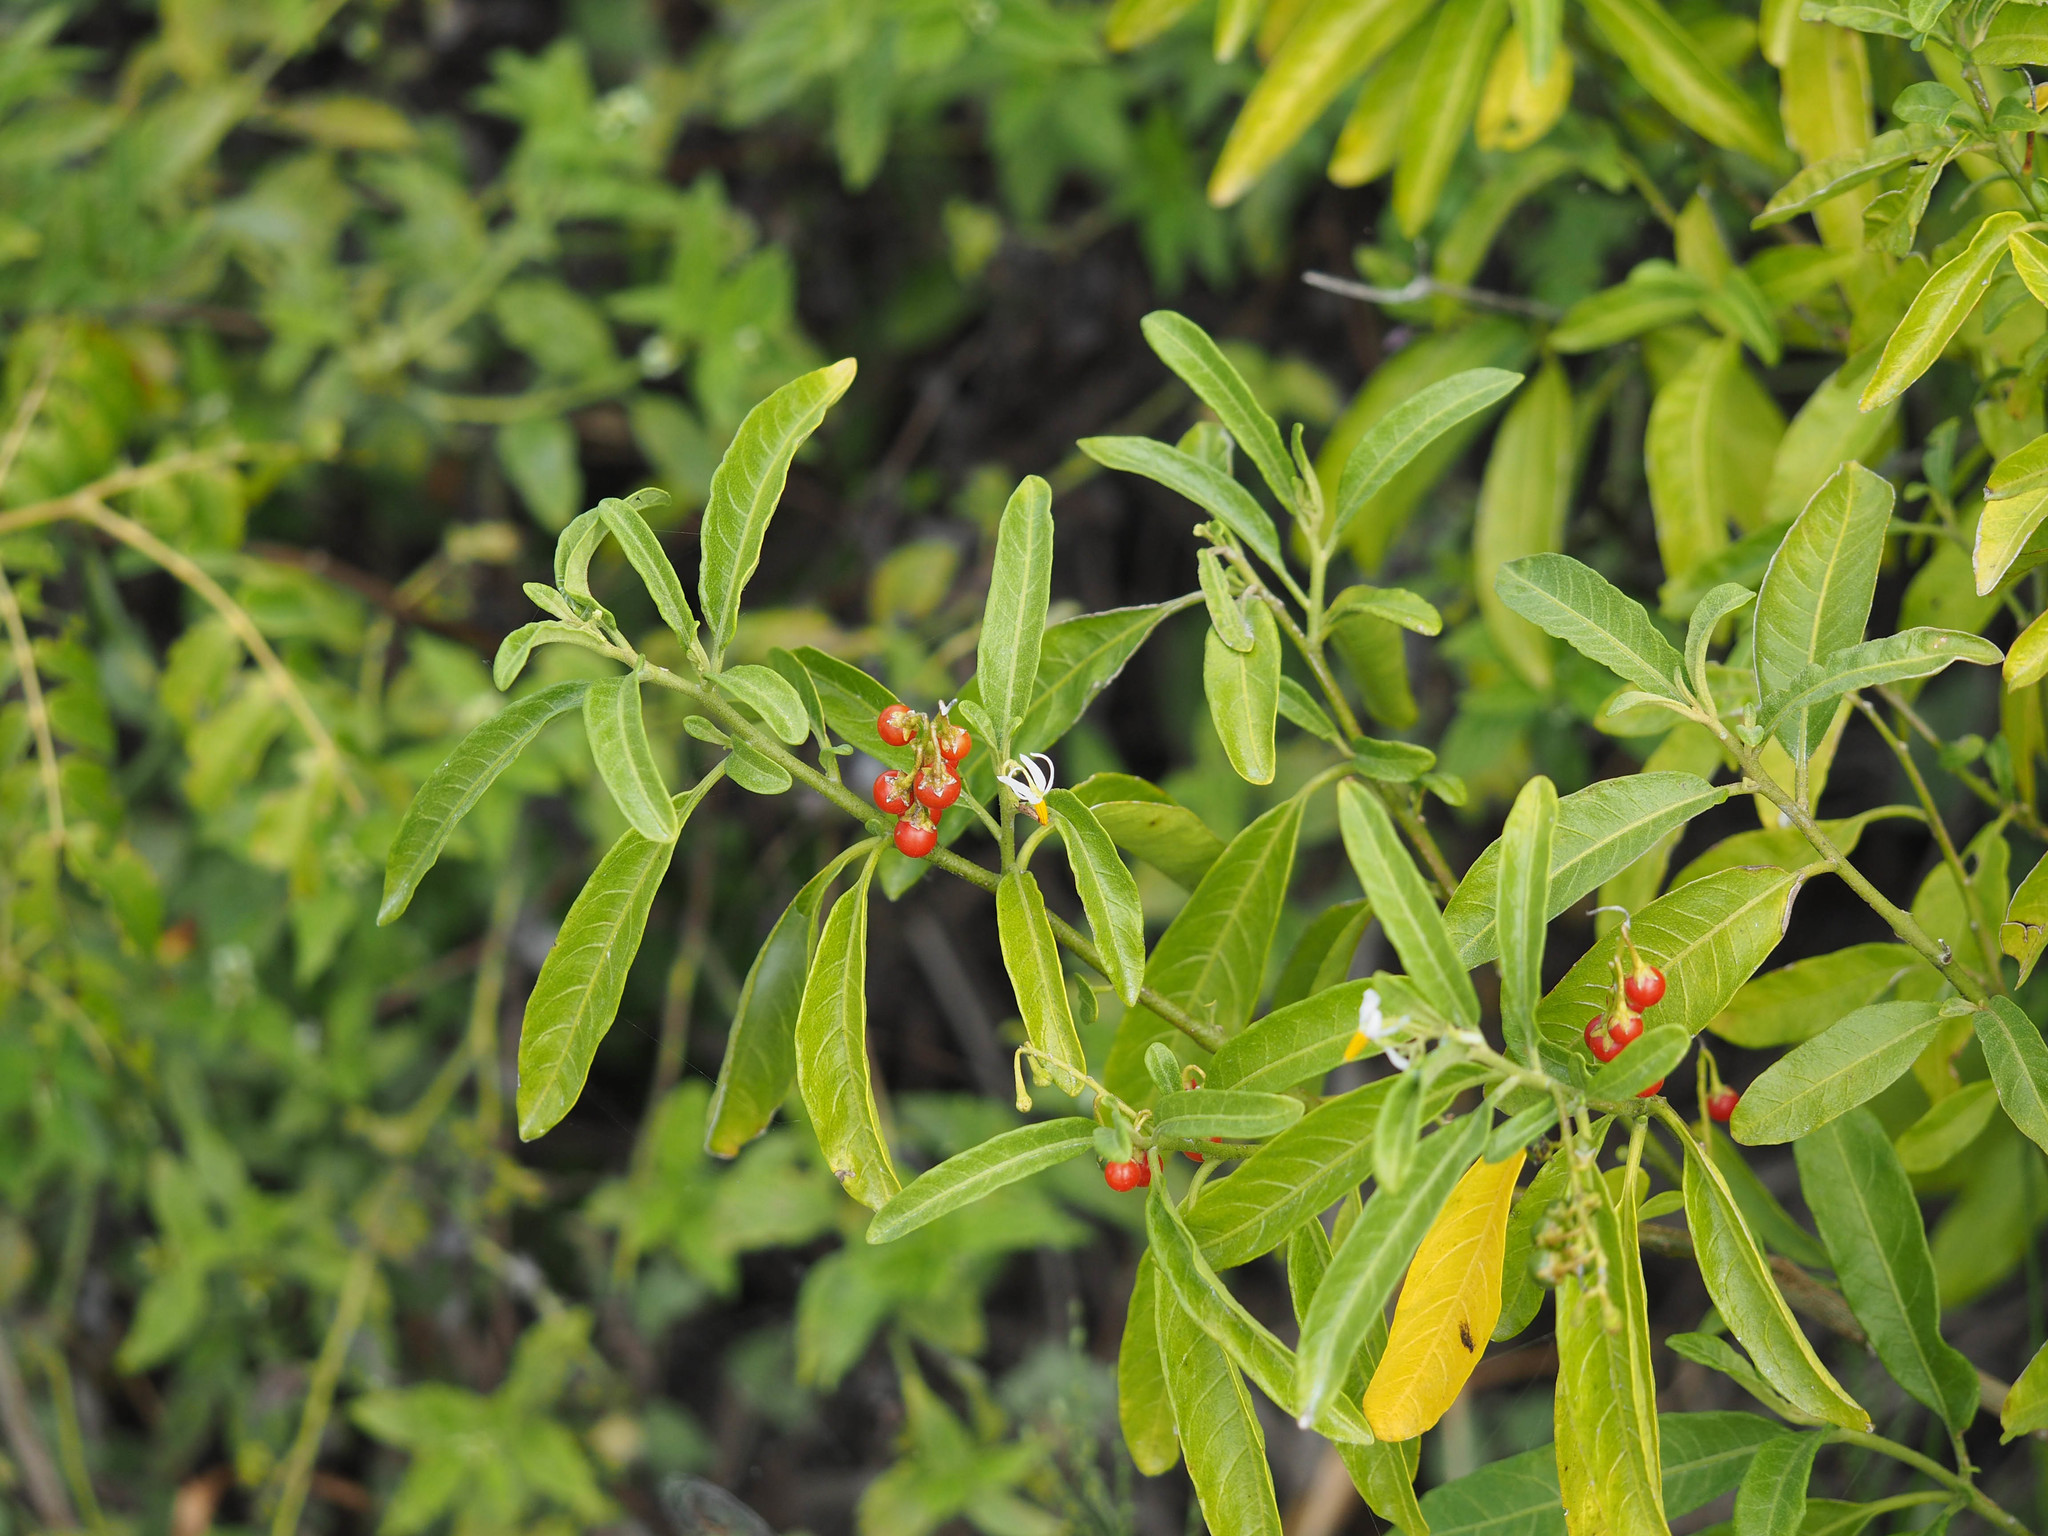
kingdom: Plantae
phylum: Tracheophyta
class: Magnoliopsida
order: Solanales
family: Solanaceae
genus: Solanum
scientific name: Solanum bahamense
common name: Canker-berry
